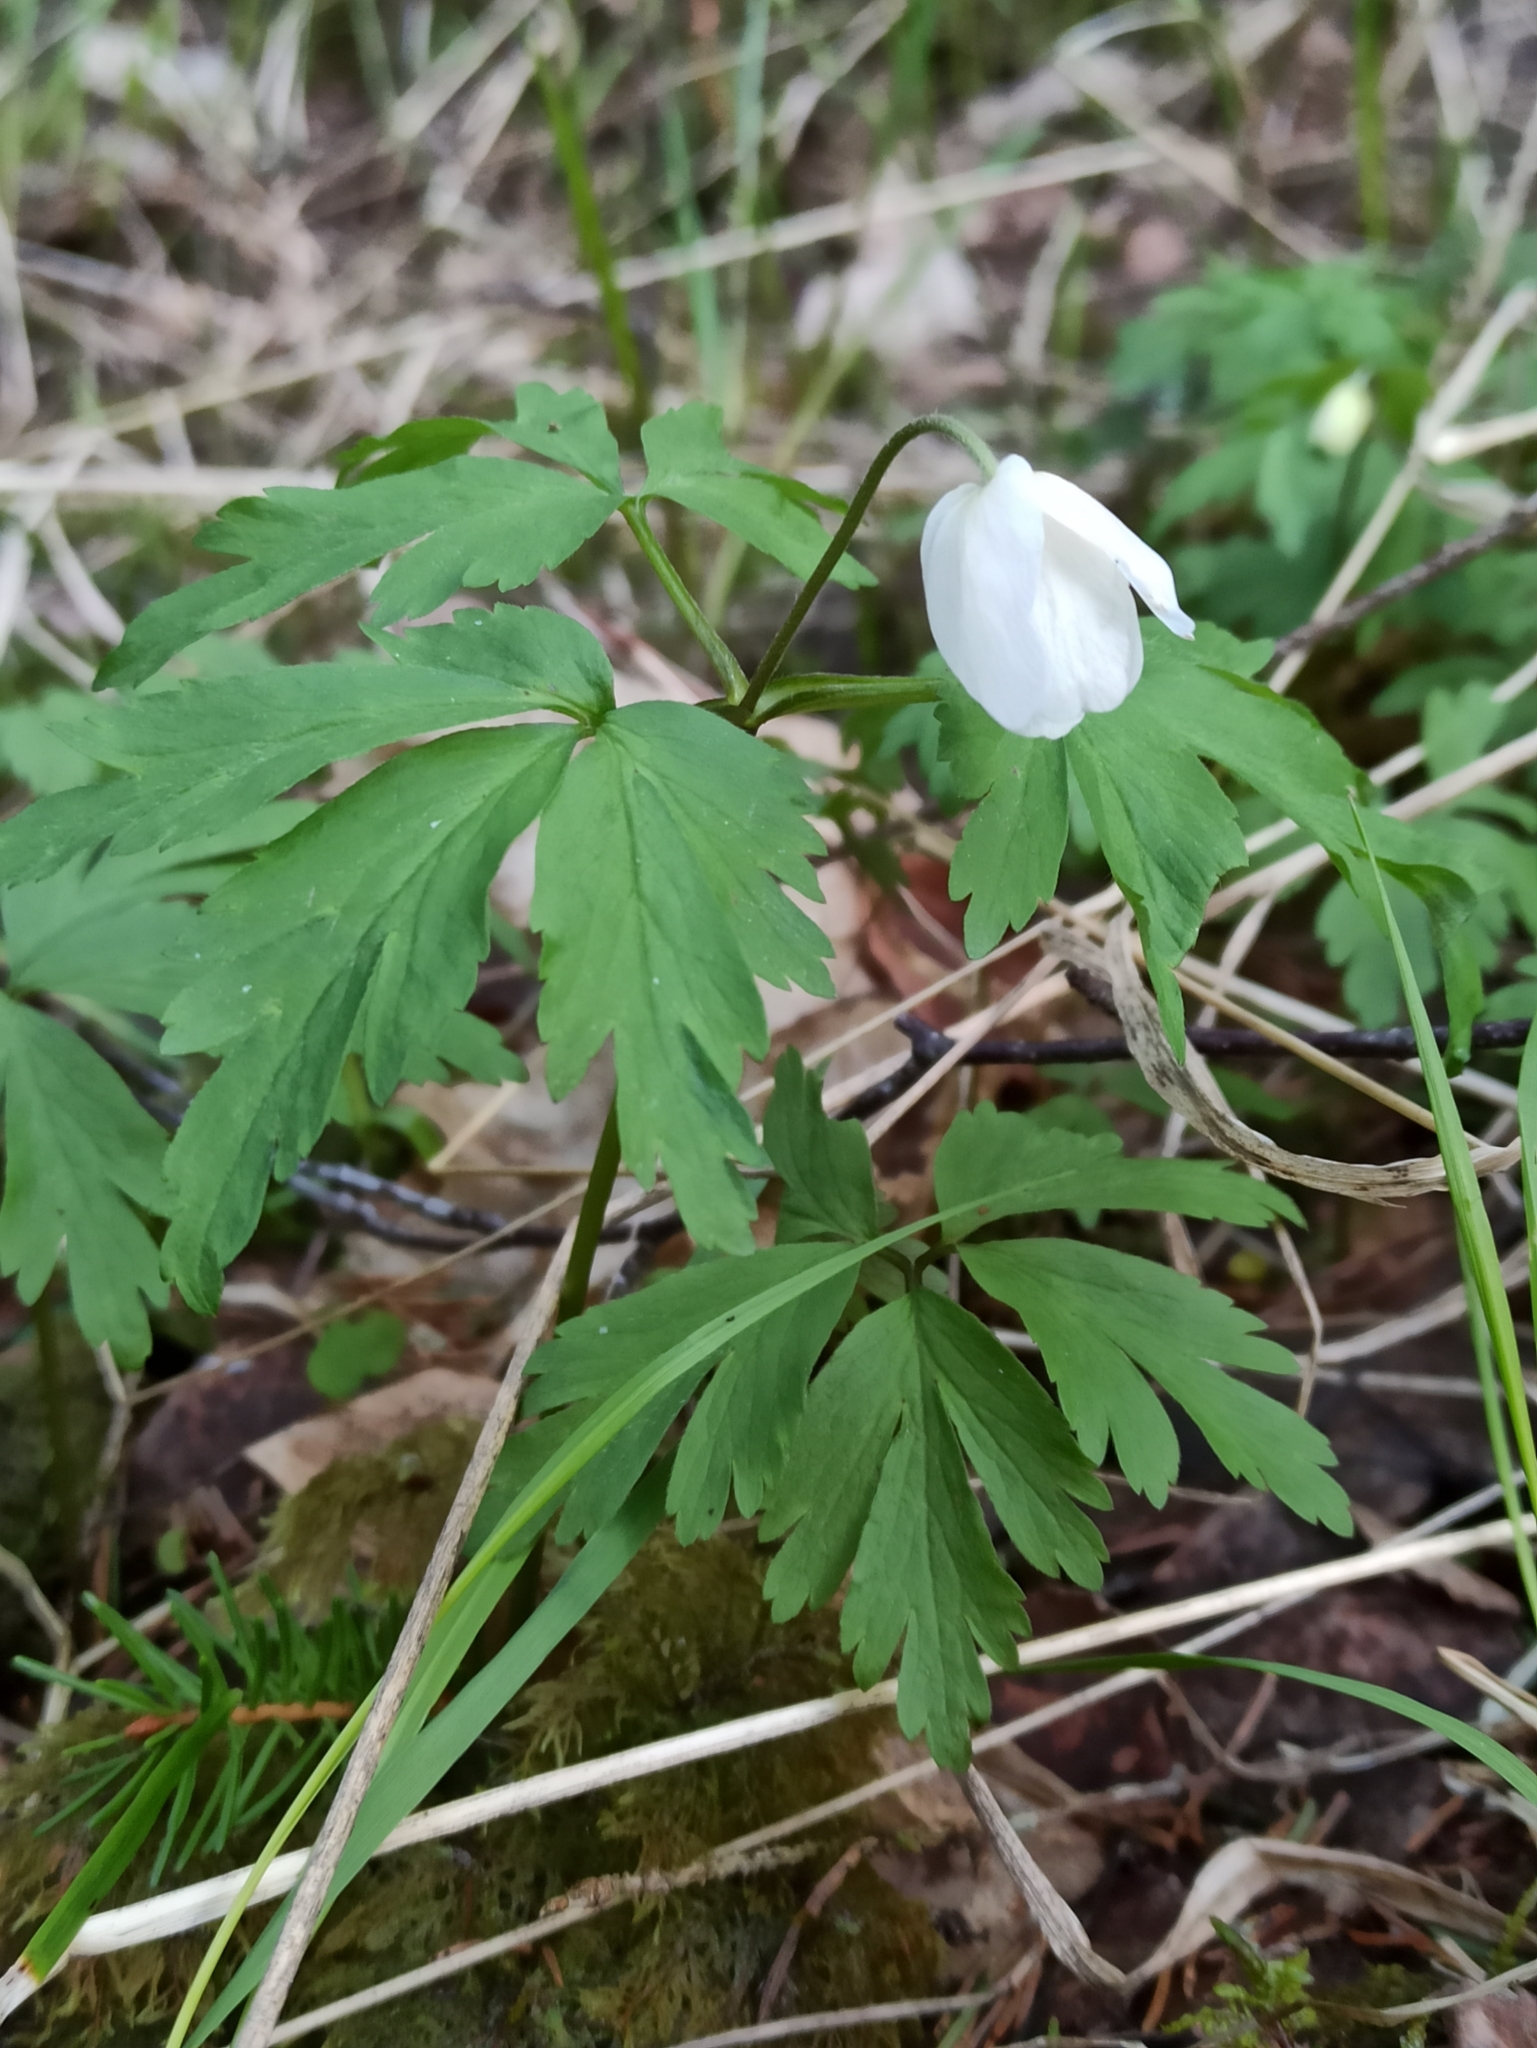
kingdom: Plantae
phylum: Tracheophyta
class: Magnoliopsida
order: Ranunculales
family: Ranunculaceae
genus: Anemone
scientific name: Anemone nemorosa
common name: Wood anemone
